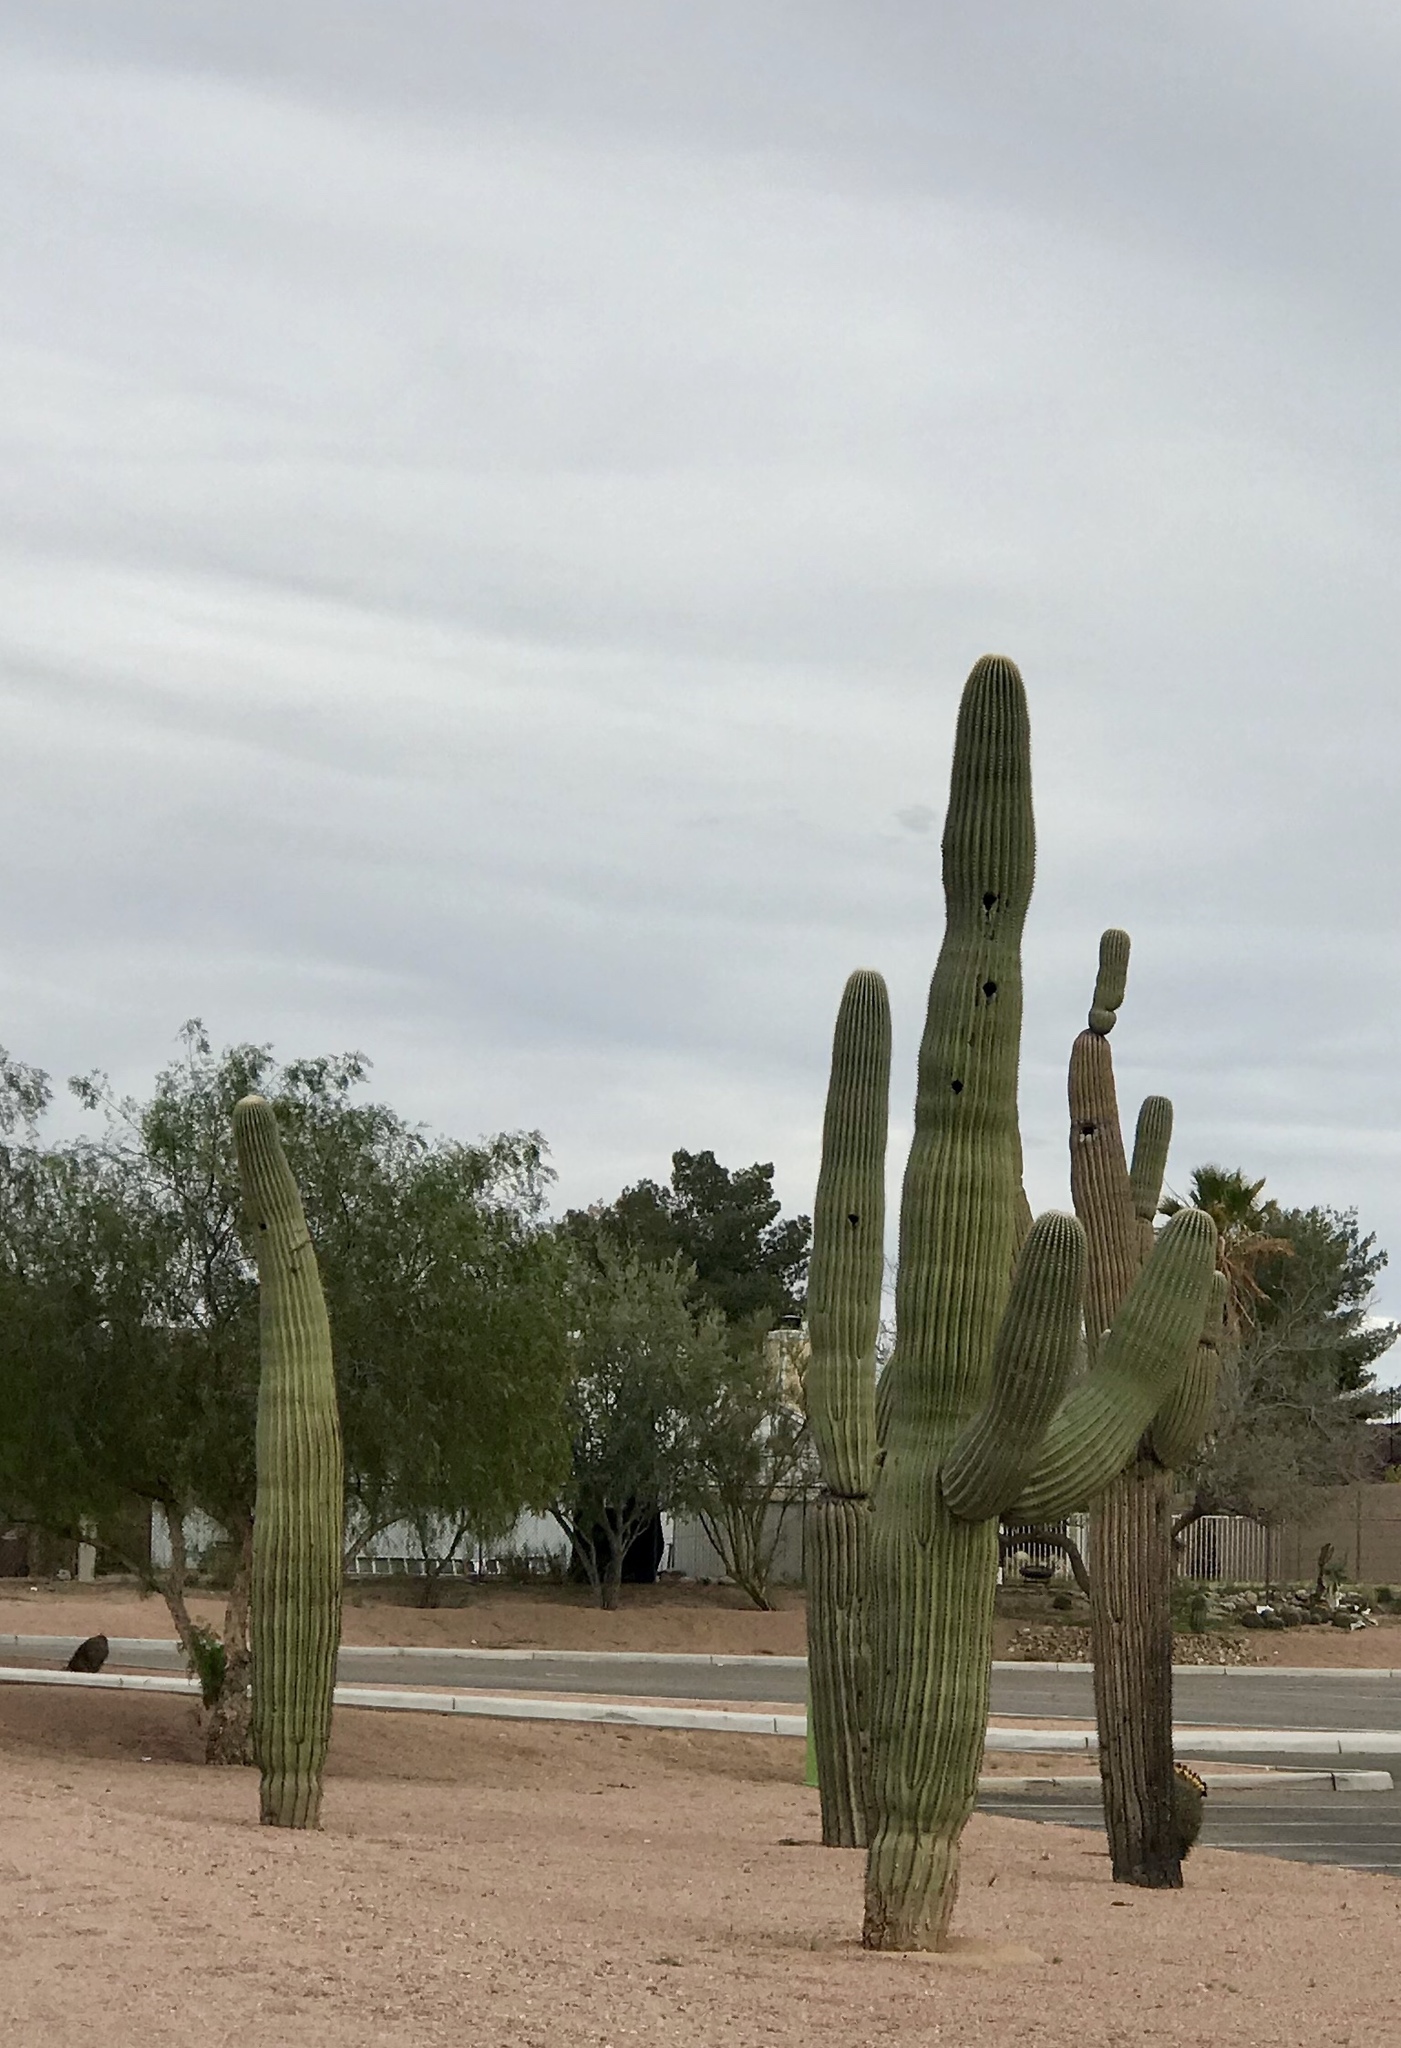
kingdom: Plantae
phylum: Tracheophyta
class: Magnoliopsida
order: Caryophyllales
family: Cactaceae
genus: Carnegiea
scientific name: Carnegiea gigantea
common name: Saguaro
